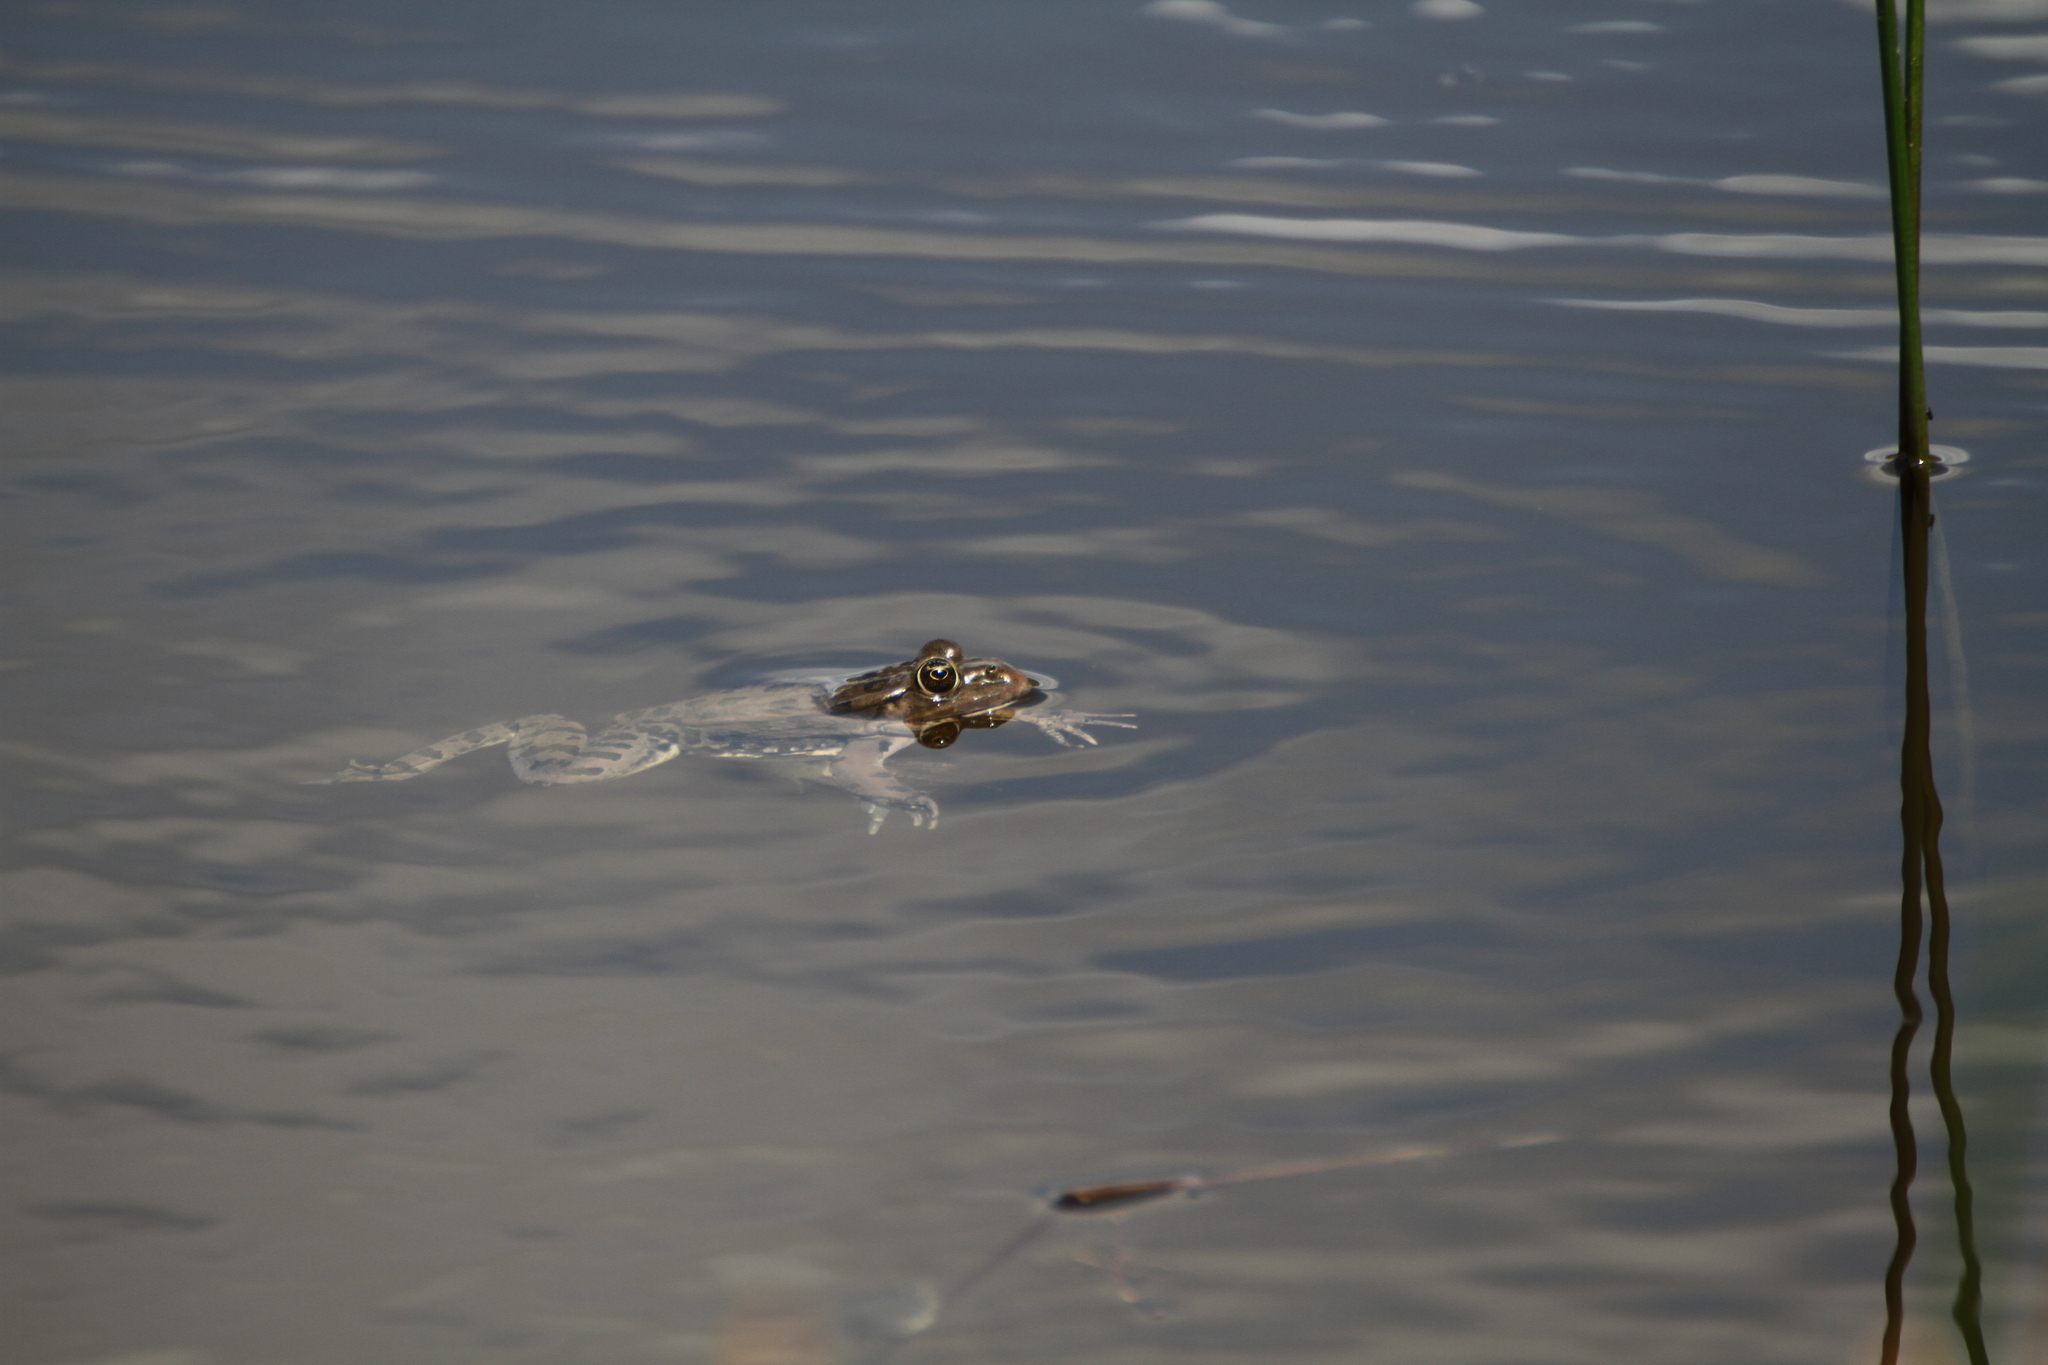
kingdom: Animalia
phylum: Chordata
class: Amphibia
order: Anura
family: Ranidae
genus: Pelophylax
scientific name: Pelophylax
